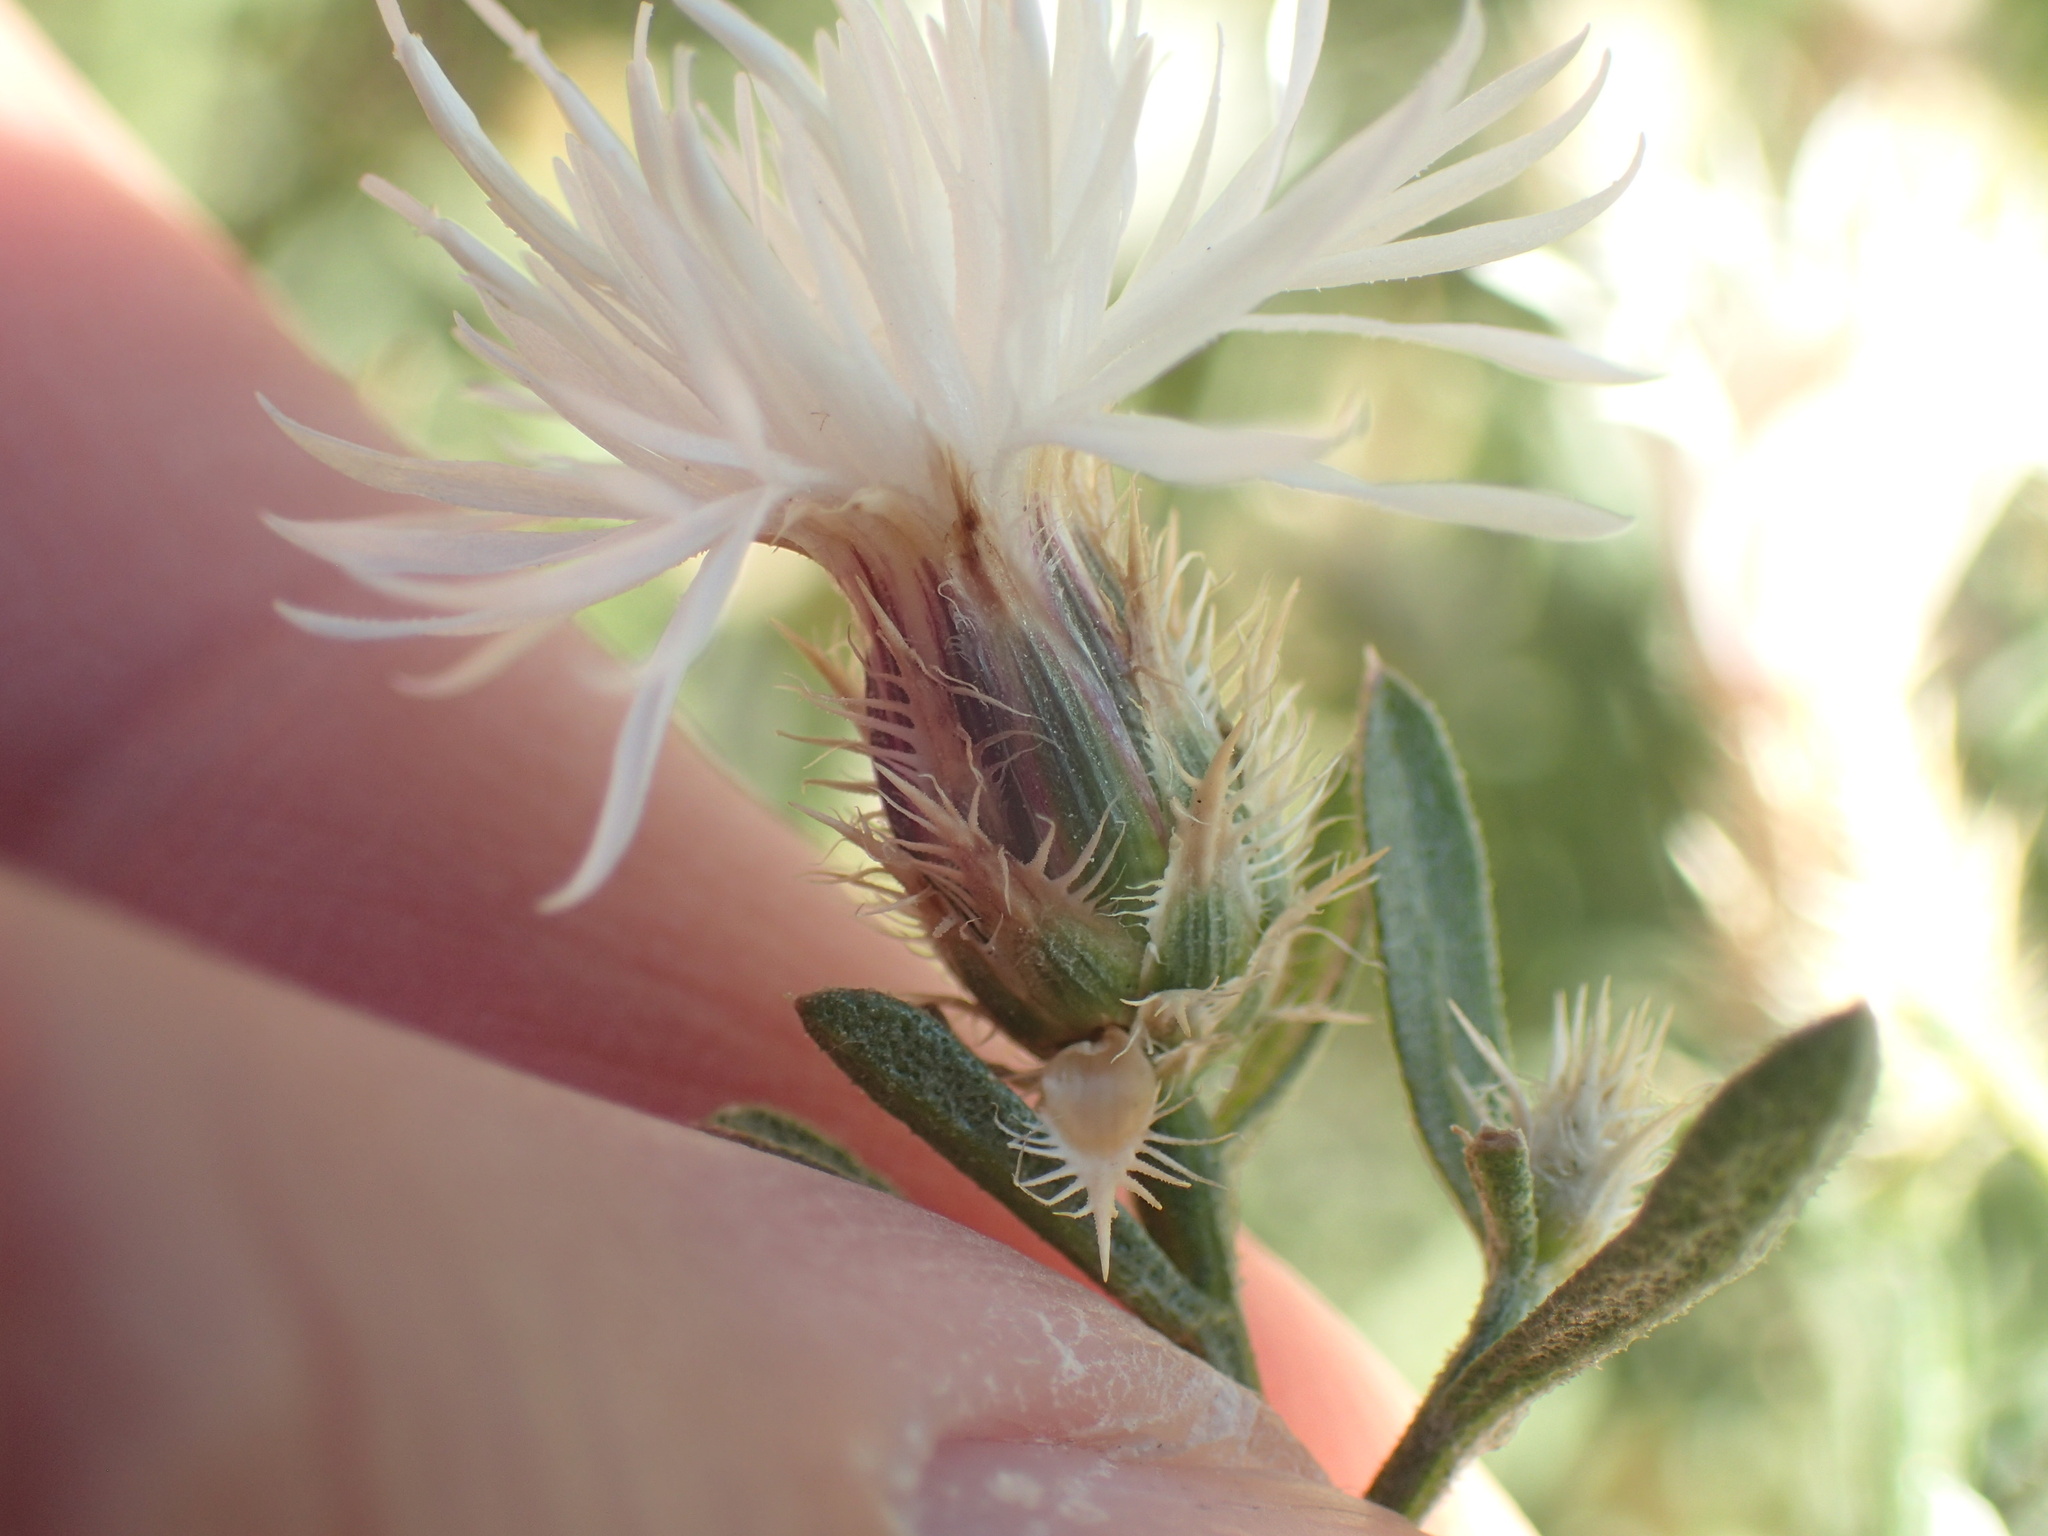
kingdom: Plantae
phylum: Tracheophyta
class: Magnoliopsida
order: Asterales
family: Asteraceae
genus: Centaurea
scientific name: Centaurea diffusa
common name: Diffuse knapweed
